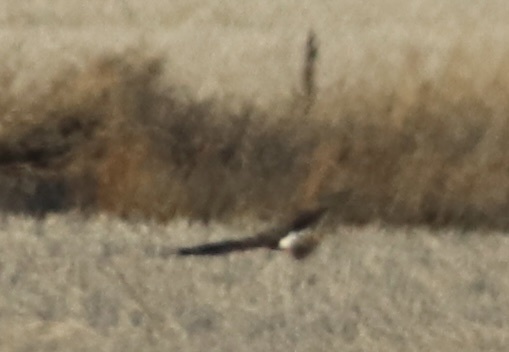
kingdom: Animalia
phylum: Chordata
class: Aves
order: Accipitriformes
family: Accipitridae
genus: Circus
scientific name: Circus cyaneus
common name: Hen harrier
